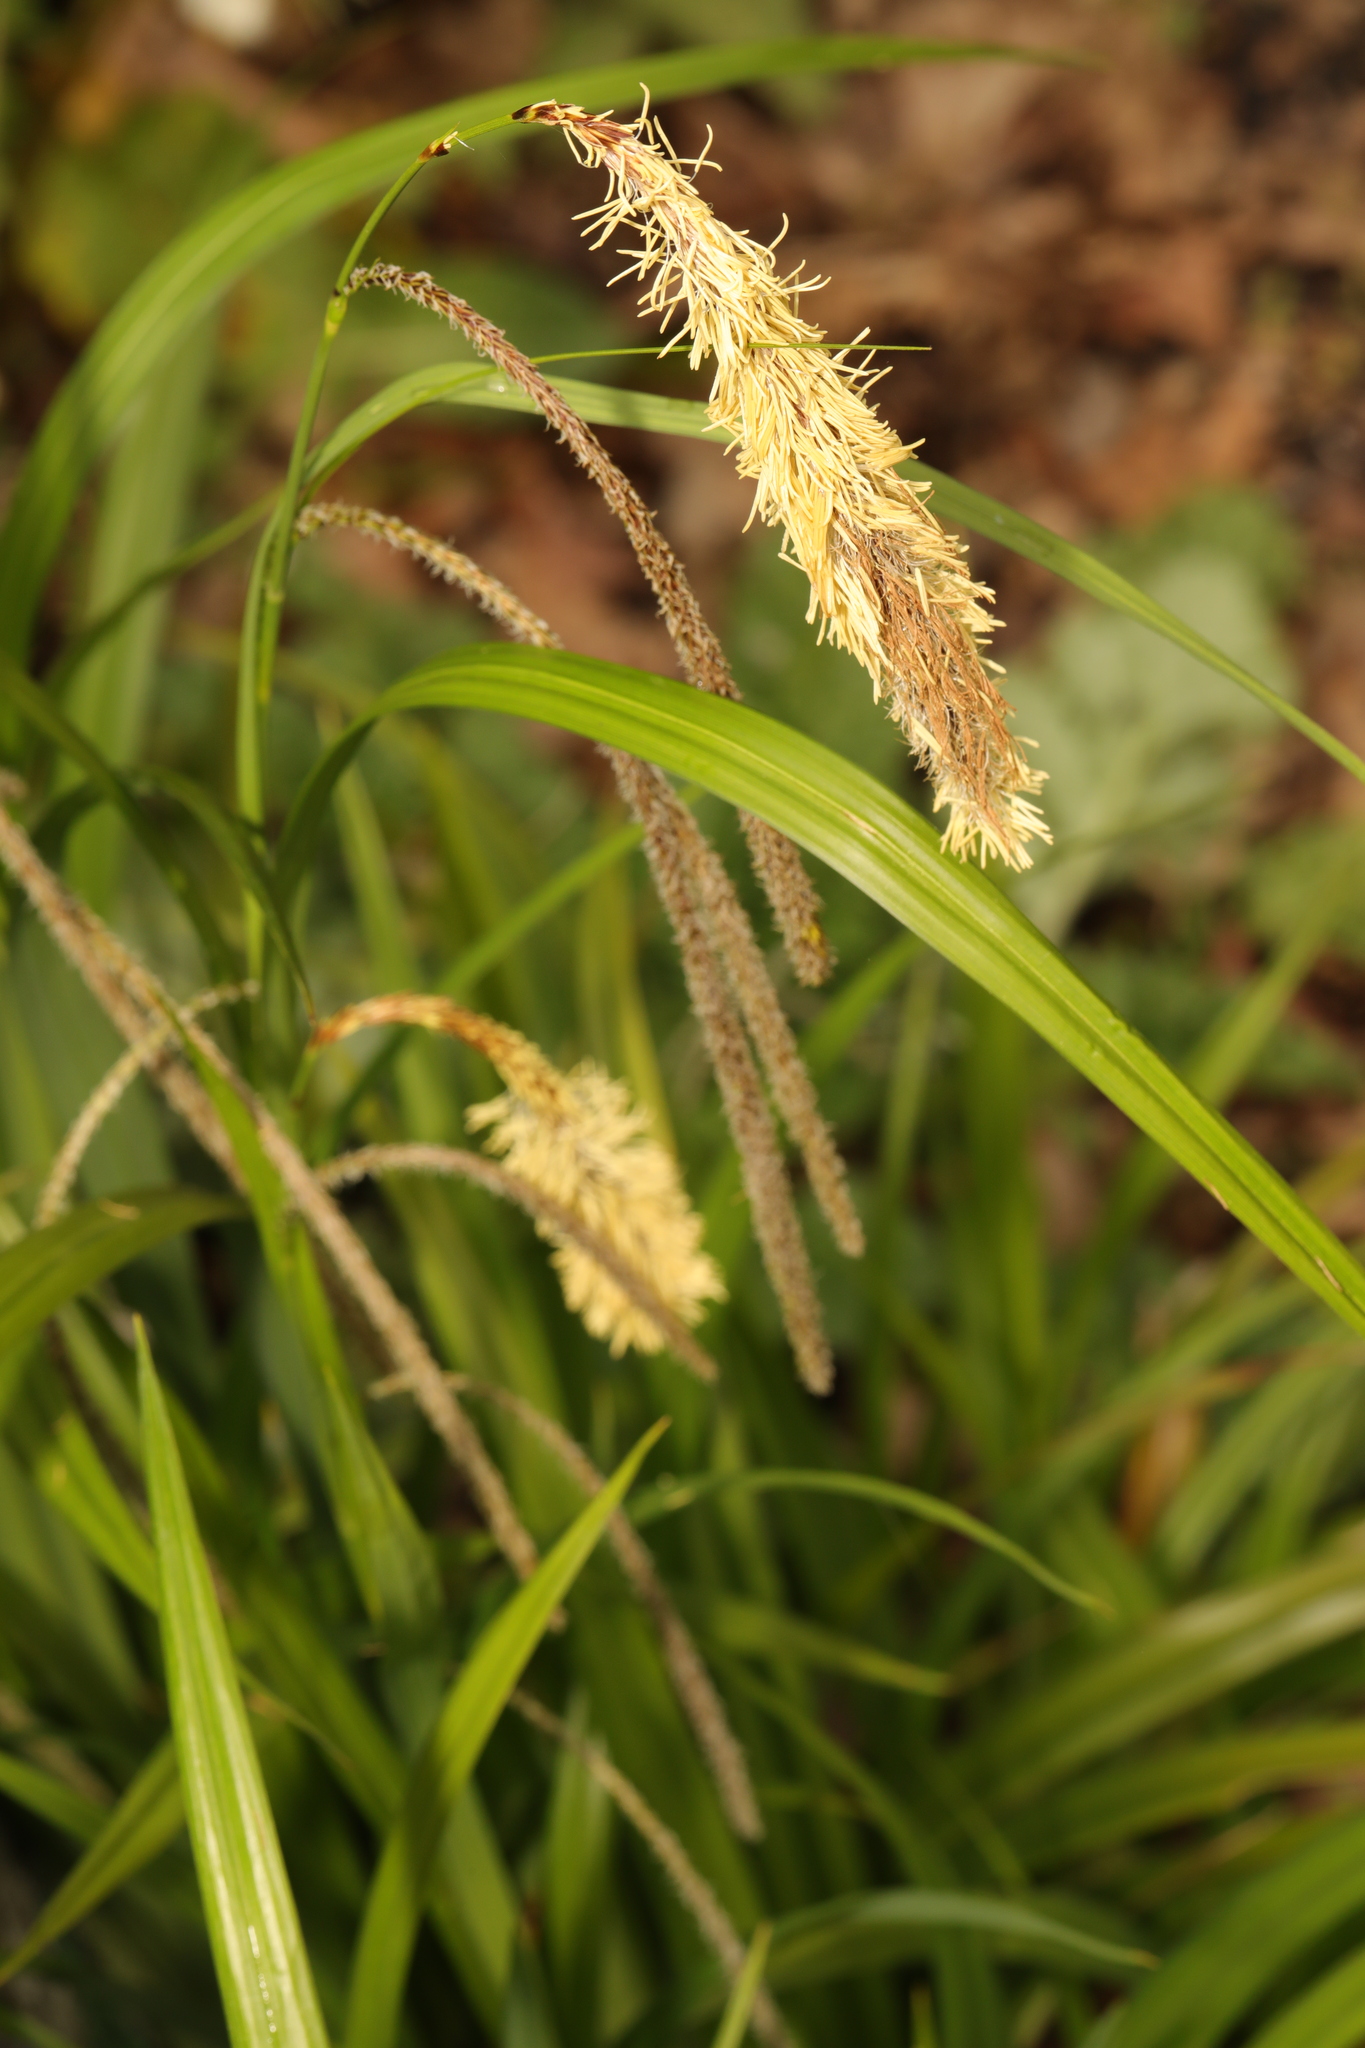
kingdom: Plantae
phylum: Tracheophyta
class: Liliopsida
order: Poales
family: Cyperaceae
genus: Carex
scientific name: Carex pendula
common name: Pendulous sedge
